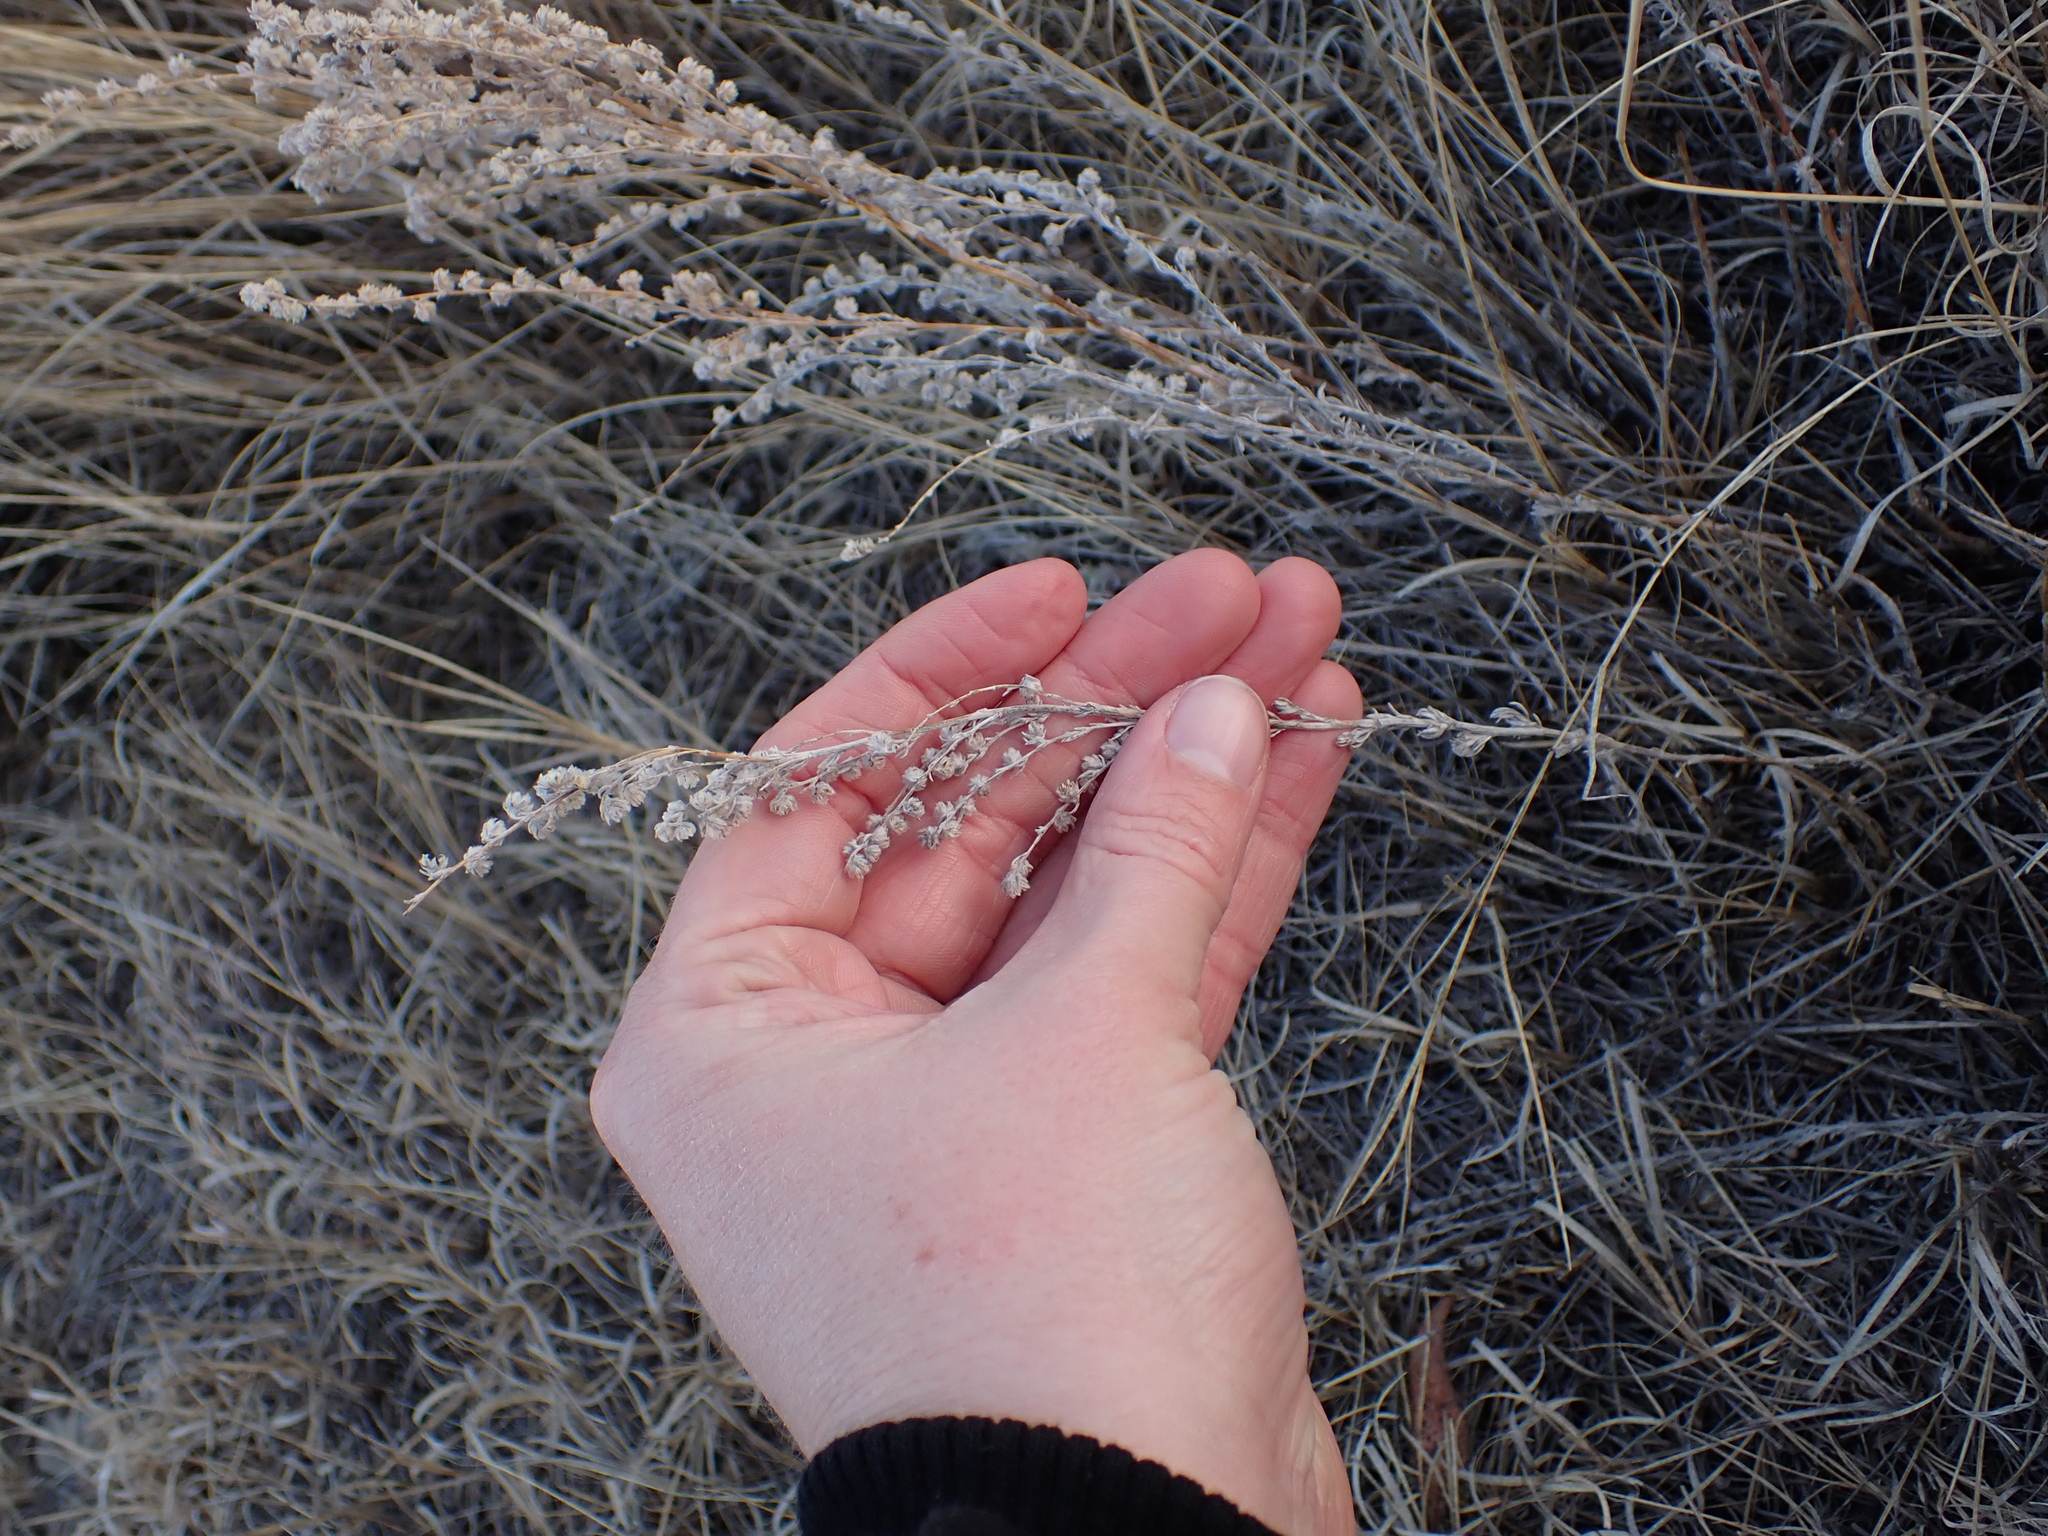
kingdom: Plantae
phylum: Tracheophyta
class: Magnoliopsida
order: Asterales
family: Asteraceae
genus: Artemisia
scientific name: Artemisia frigida
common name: Prairie sagewort
